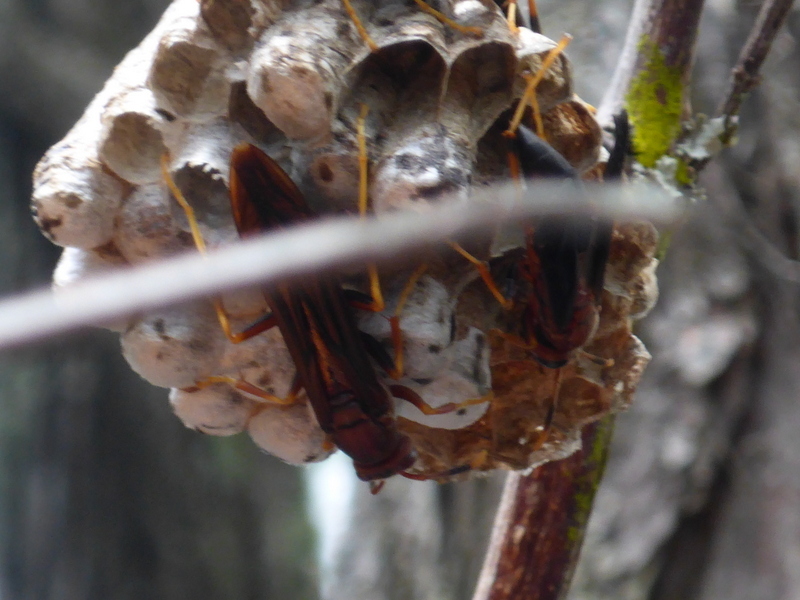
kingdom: Animalia
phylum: Arthropoda
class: Insecta
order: Hymenoptera
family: Eumenidae
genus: Polistes
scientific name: Polistes annularis
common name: Ringed paper wasp
